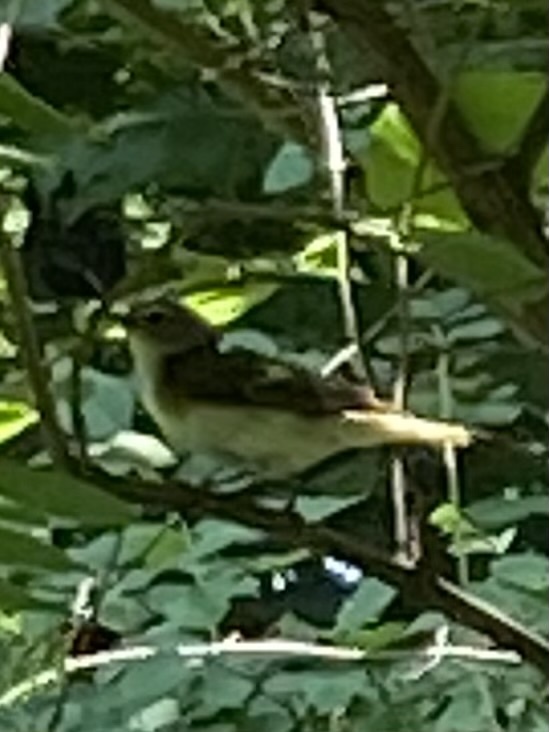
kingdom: Animalia
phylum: Chordata
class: Aves
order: Passeriformes
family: Parulidae
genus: Setophaga
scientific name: Setophaga ruticilla
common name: American redstart
